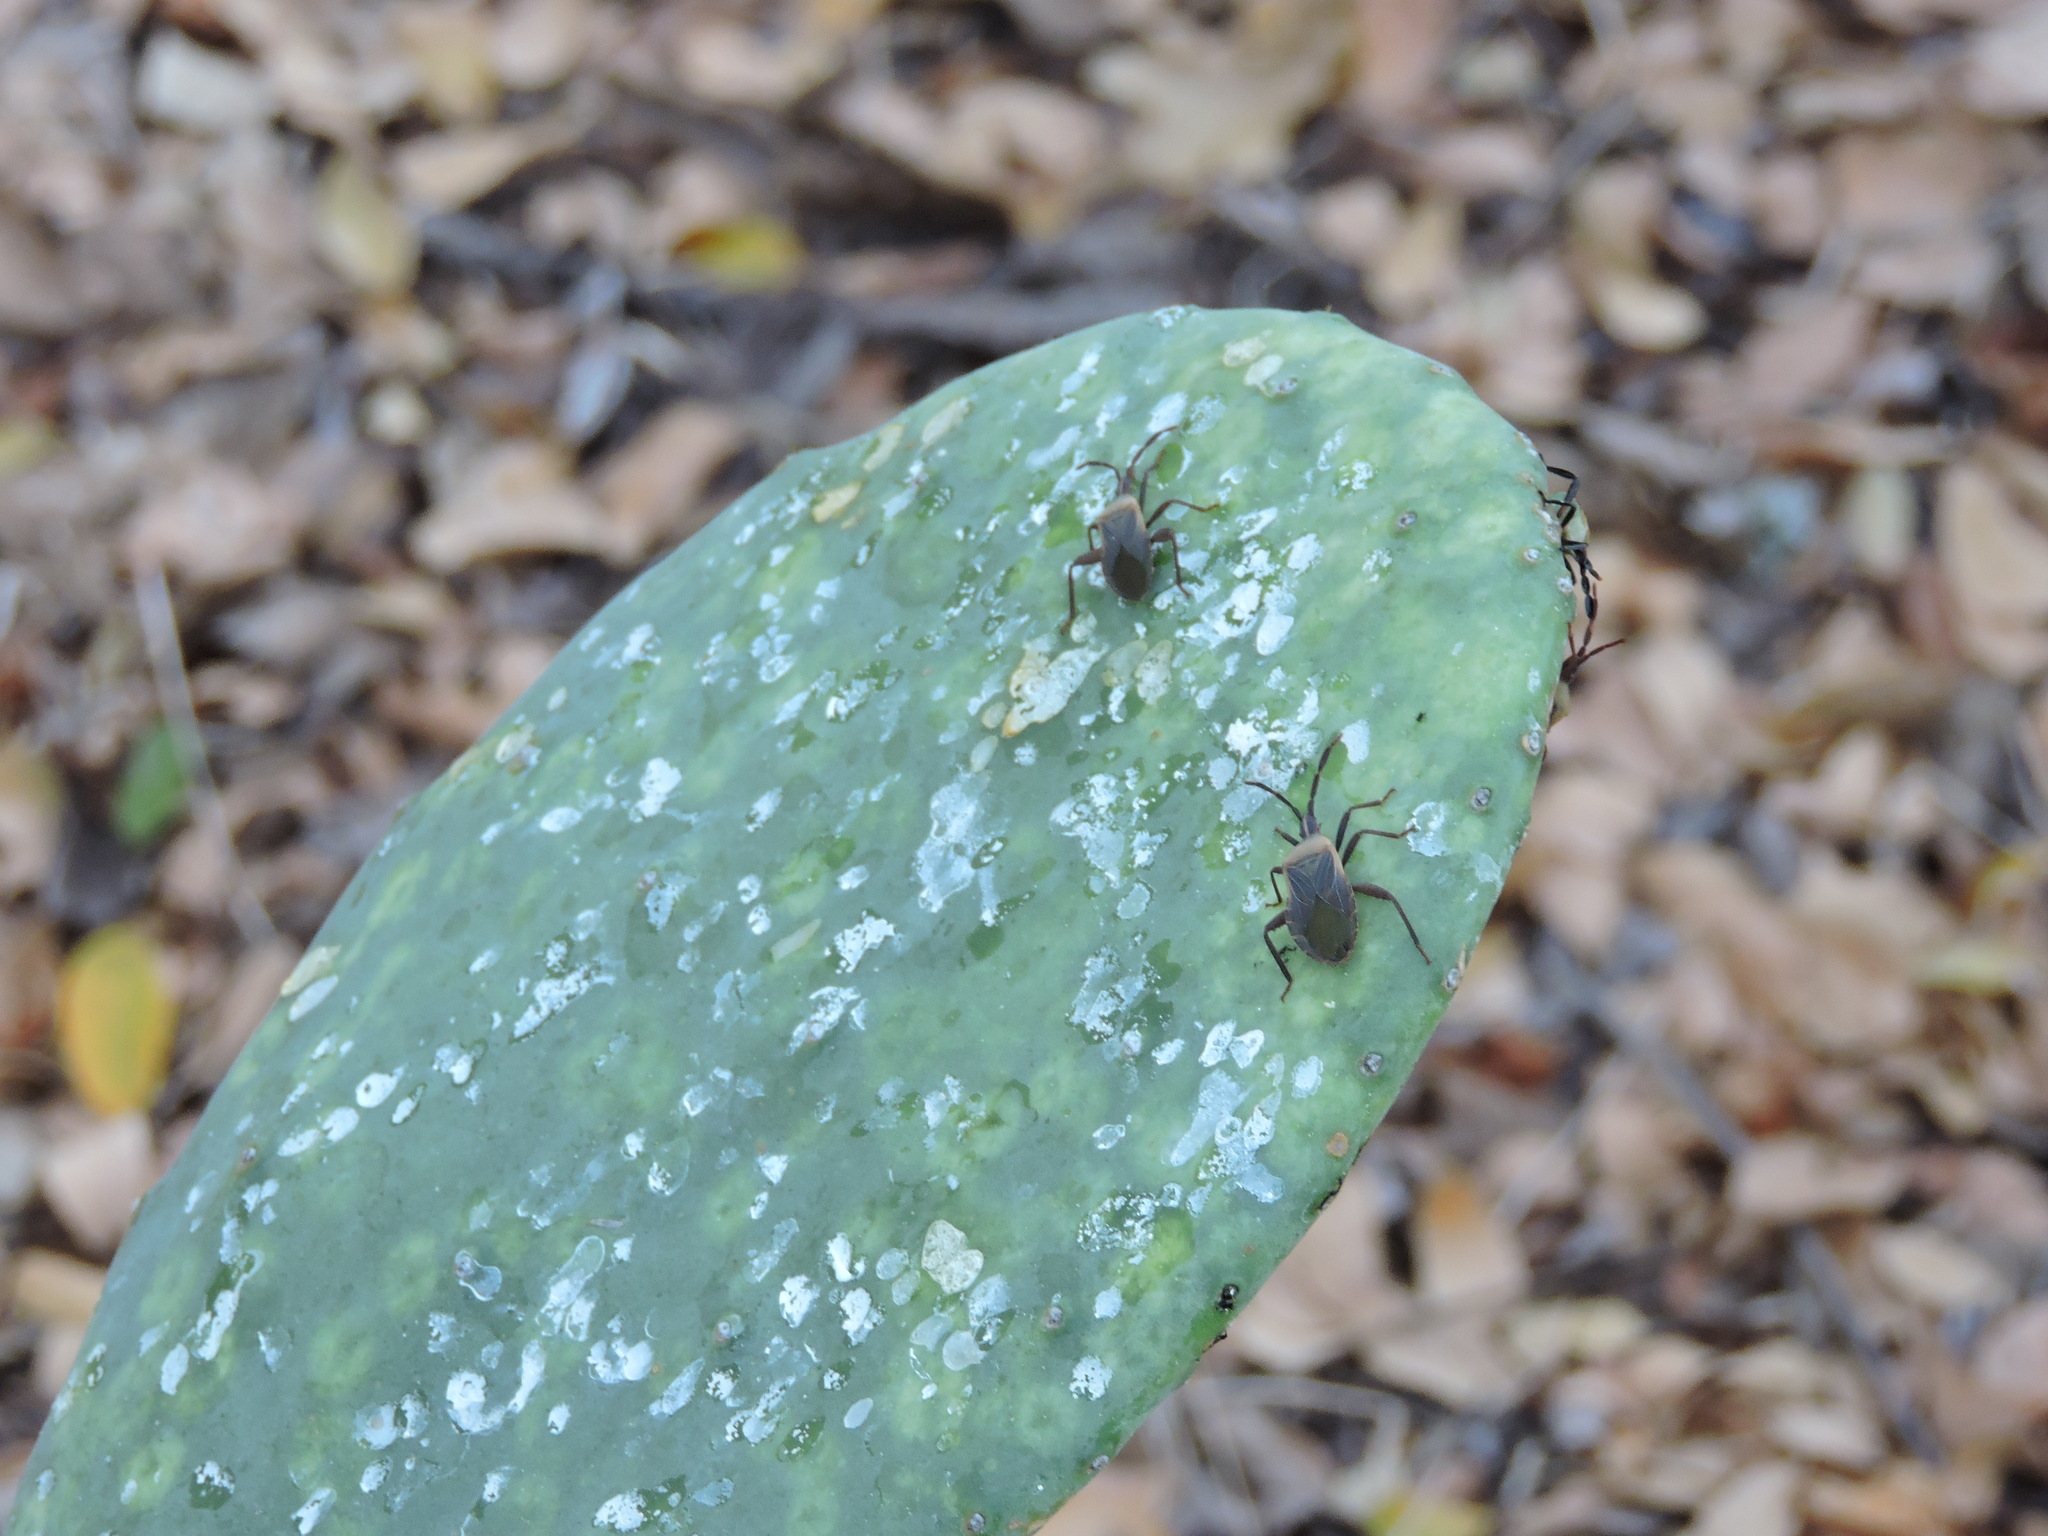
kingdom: Animalia
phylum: Arthropoda
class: Insecta
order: Hemiptera
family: Coreidae
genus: Chelinidea
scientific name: Chelinidea vittiger
